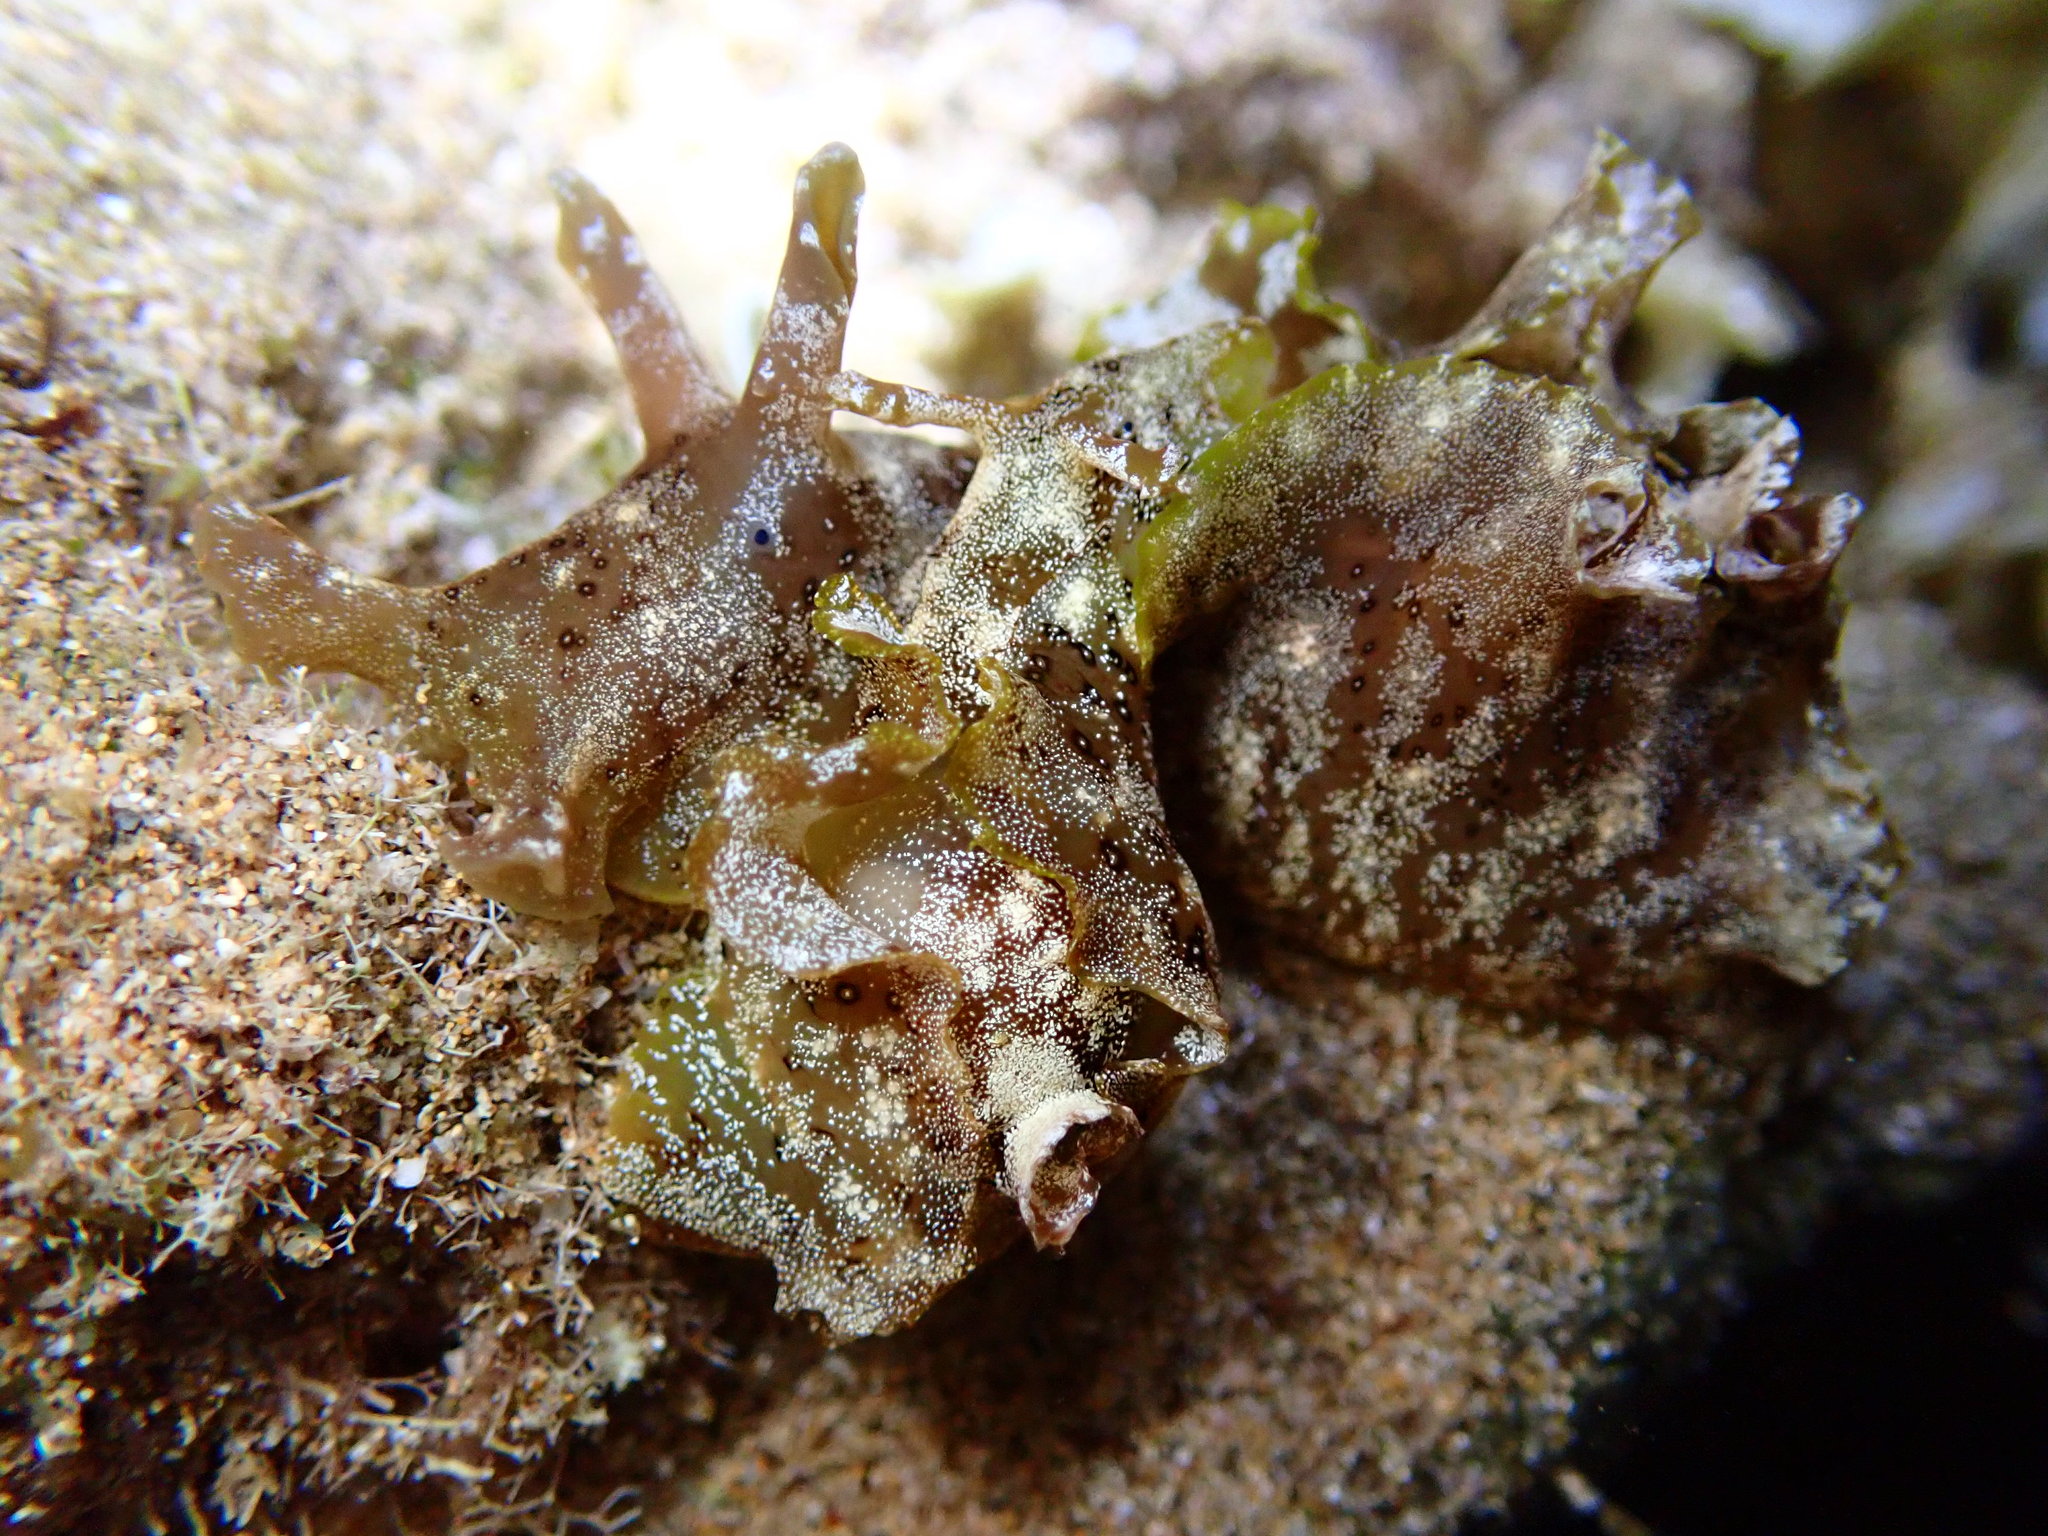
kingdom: Animalia
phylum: Mollusca
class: Gastropoda
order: Aplysiida
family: Aplysiidae
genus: Aplysia
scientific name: Aplysia oculifera
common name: Spotted sea hare
